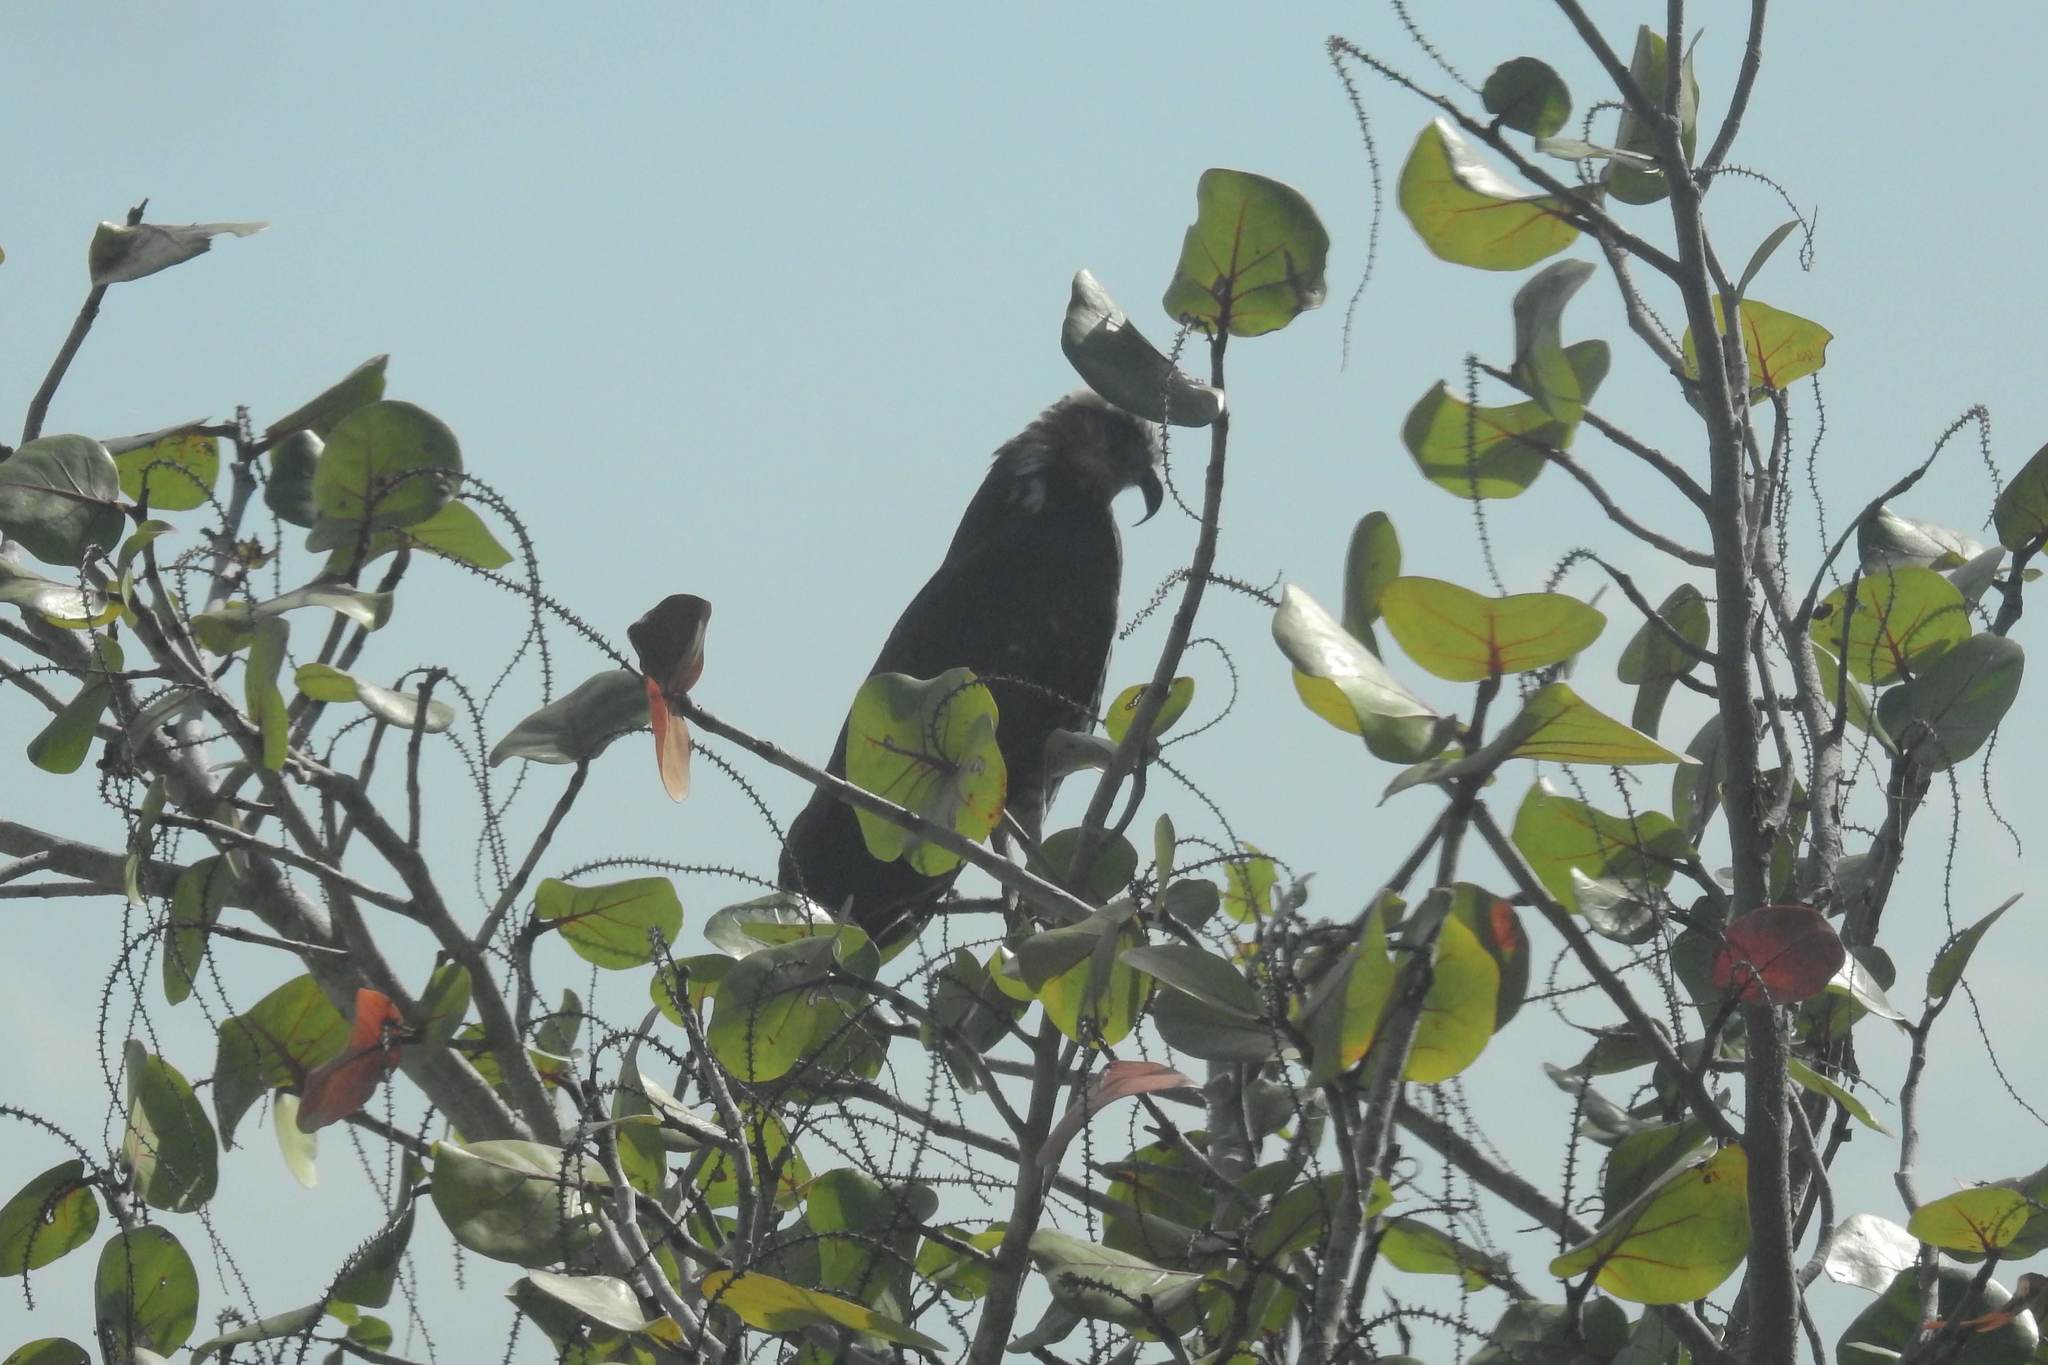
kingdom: Animalia
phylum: Chordata
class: Aves
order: Accipitriformes
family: Accipitridae
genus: Rostrhamus
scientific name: Rostrhamus sociabilis
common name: Snail kite
